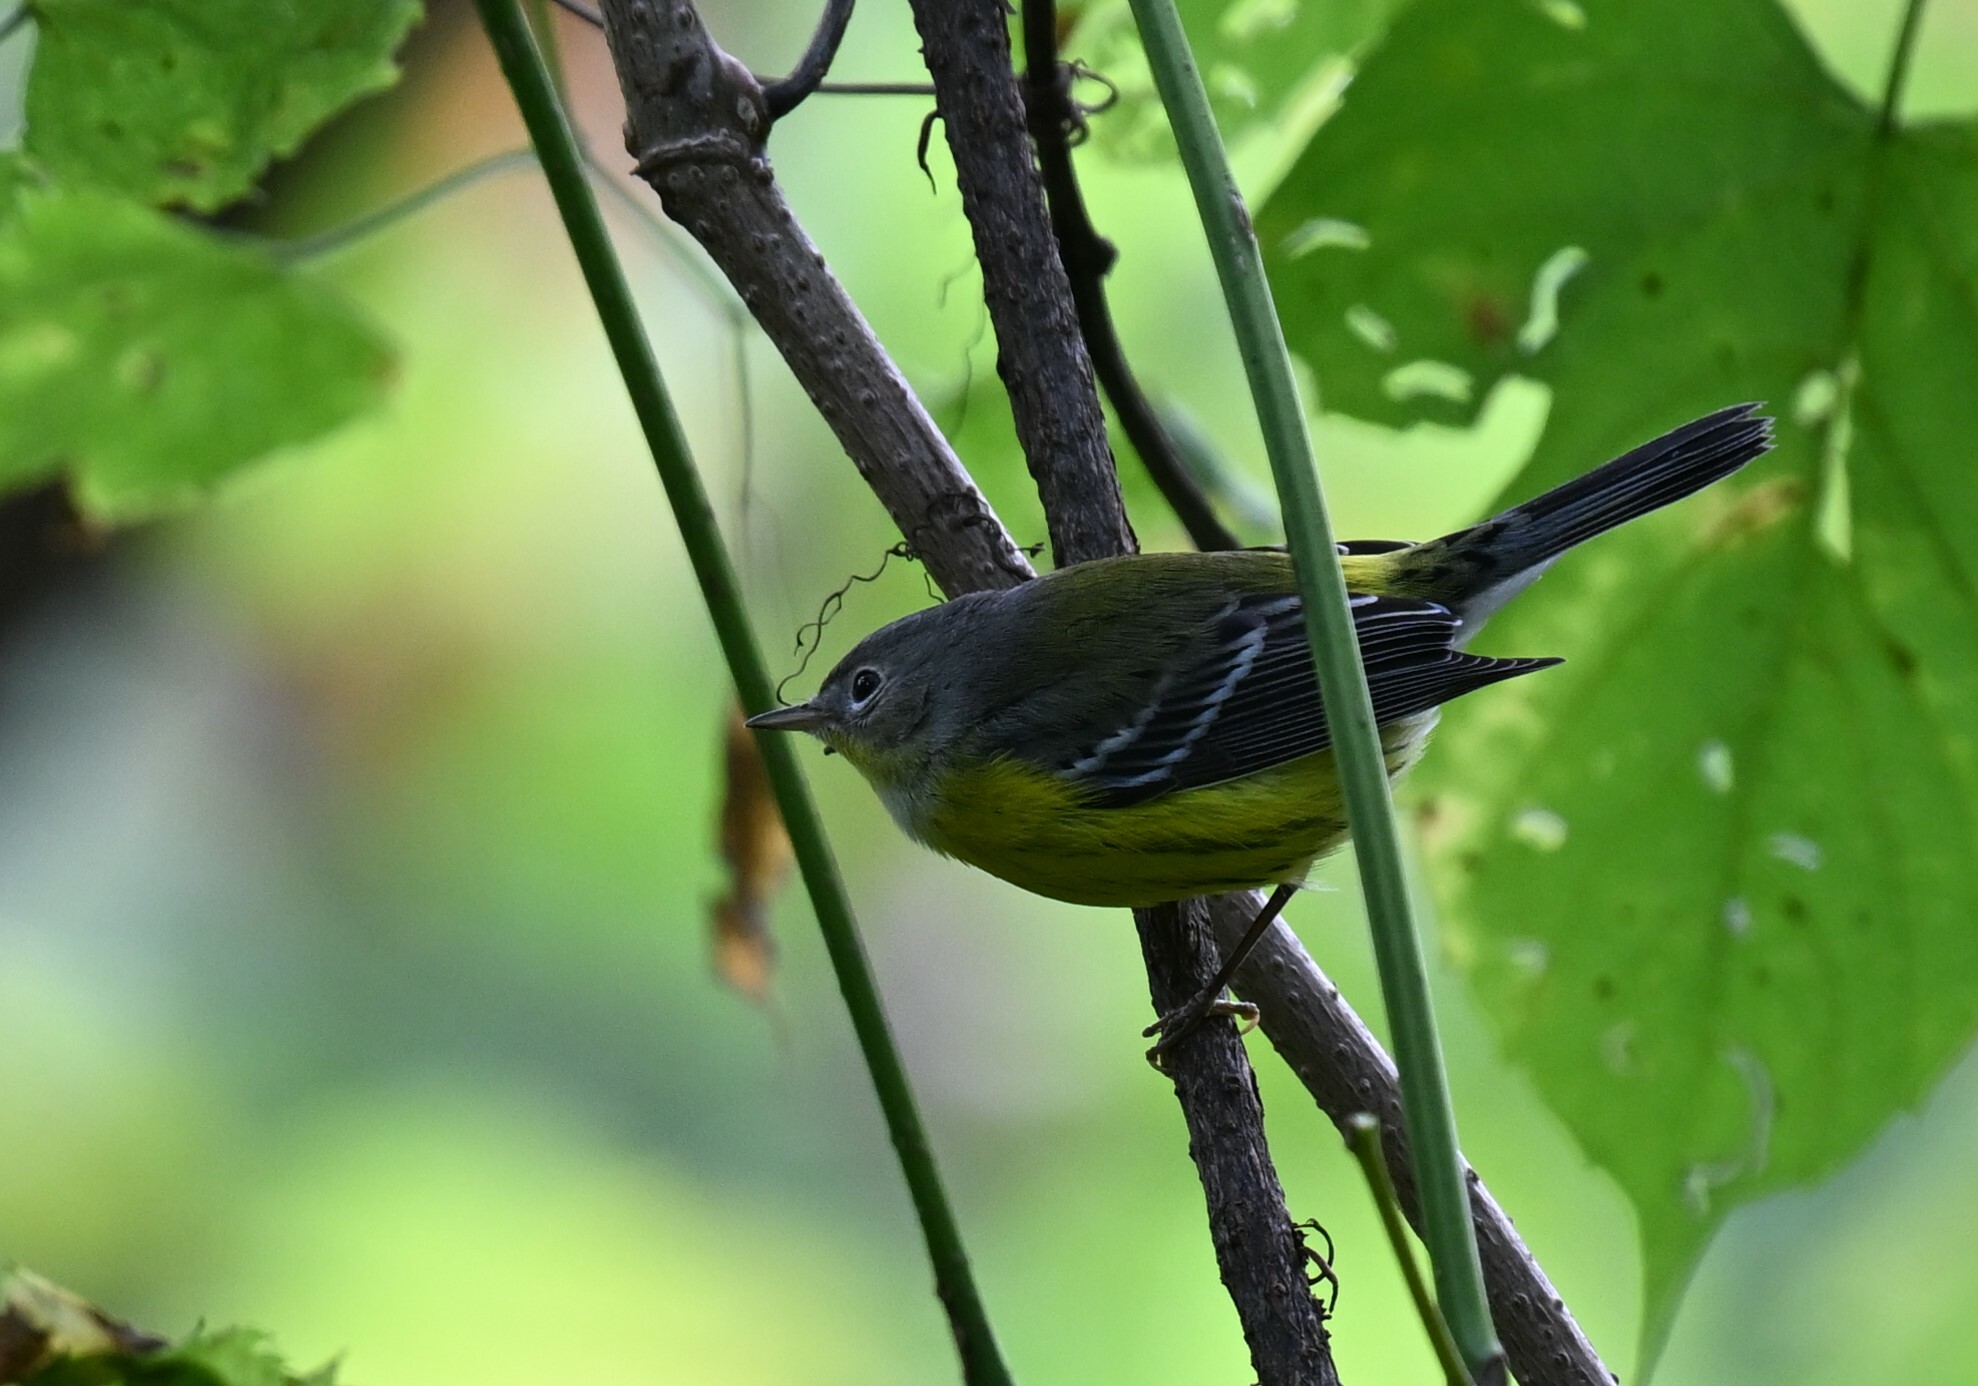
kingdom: Animalia
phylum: Chordata
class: Aves
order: Passeriformes
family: Parulidae
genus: Setophaga
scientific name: Setophaga magnolia
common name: Magnolia warbler
